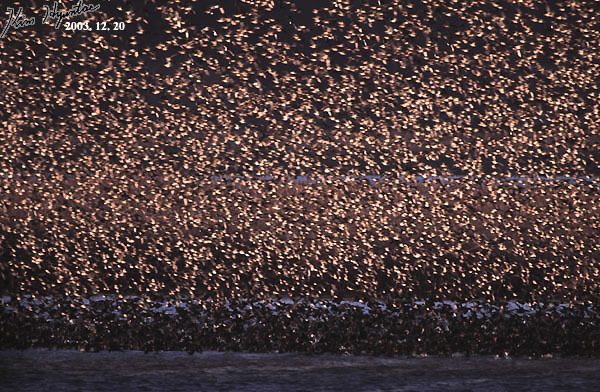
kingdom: Animalia
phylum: Chordata
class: Aves
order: Anseriformes
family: Anatidae
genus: Sibirionetta
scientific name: Sibirionetta formosa
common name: Baikal teal
